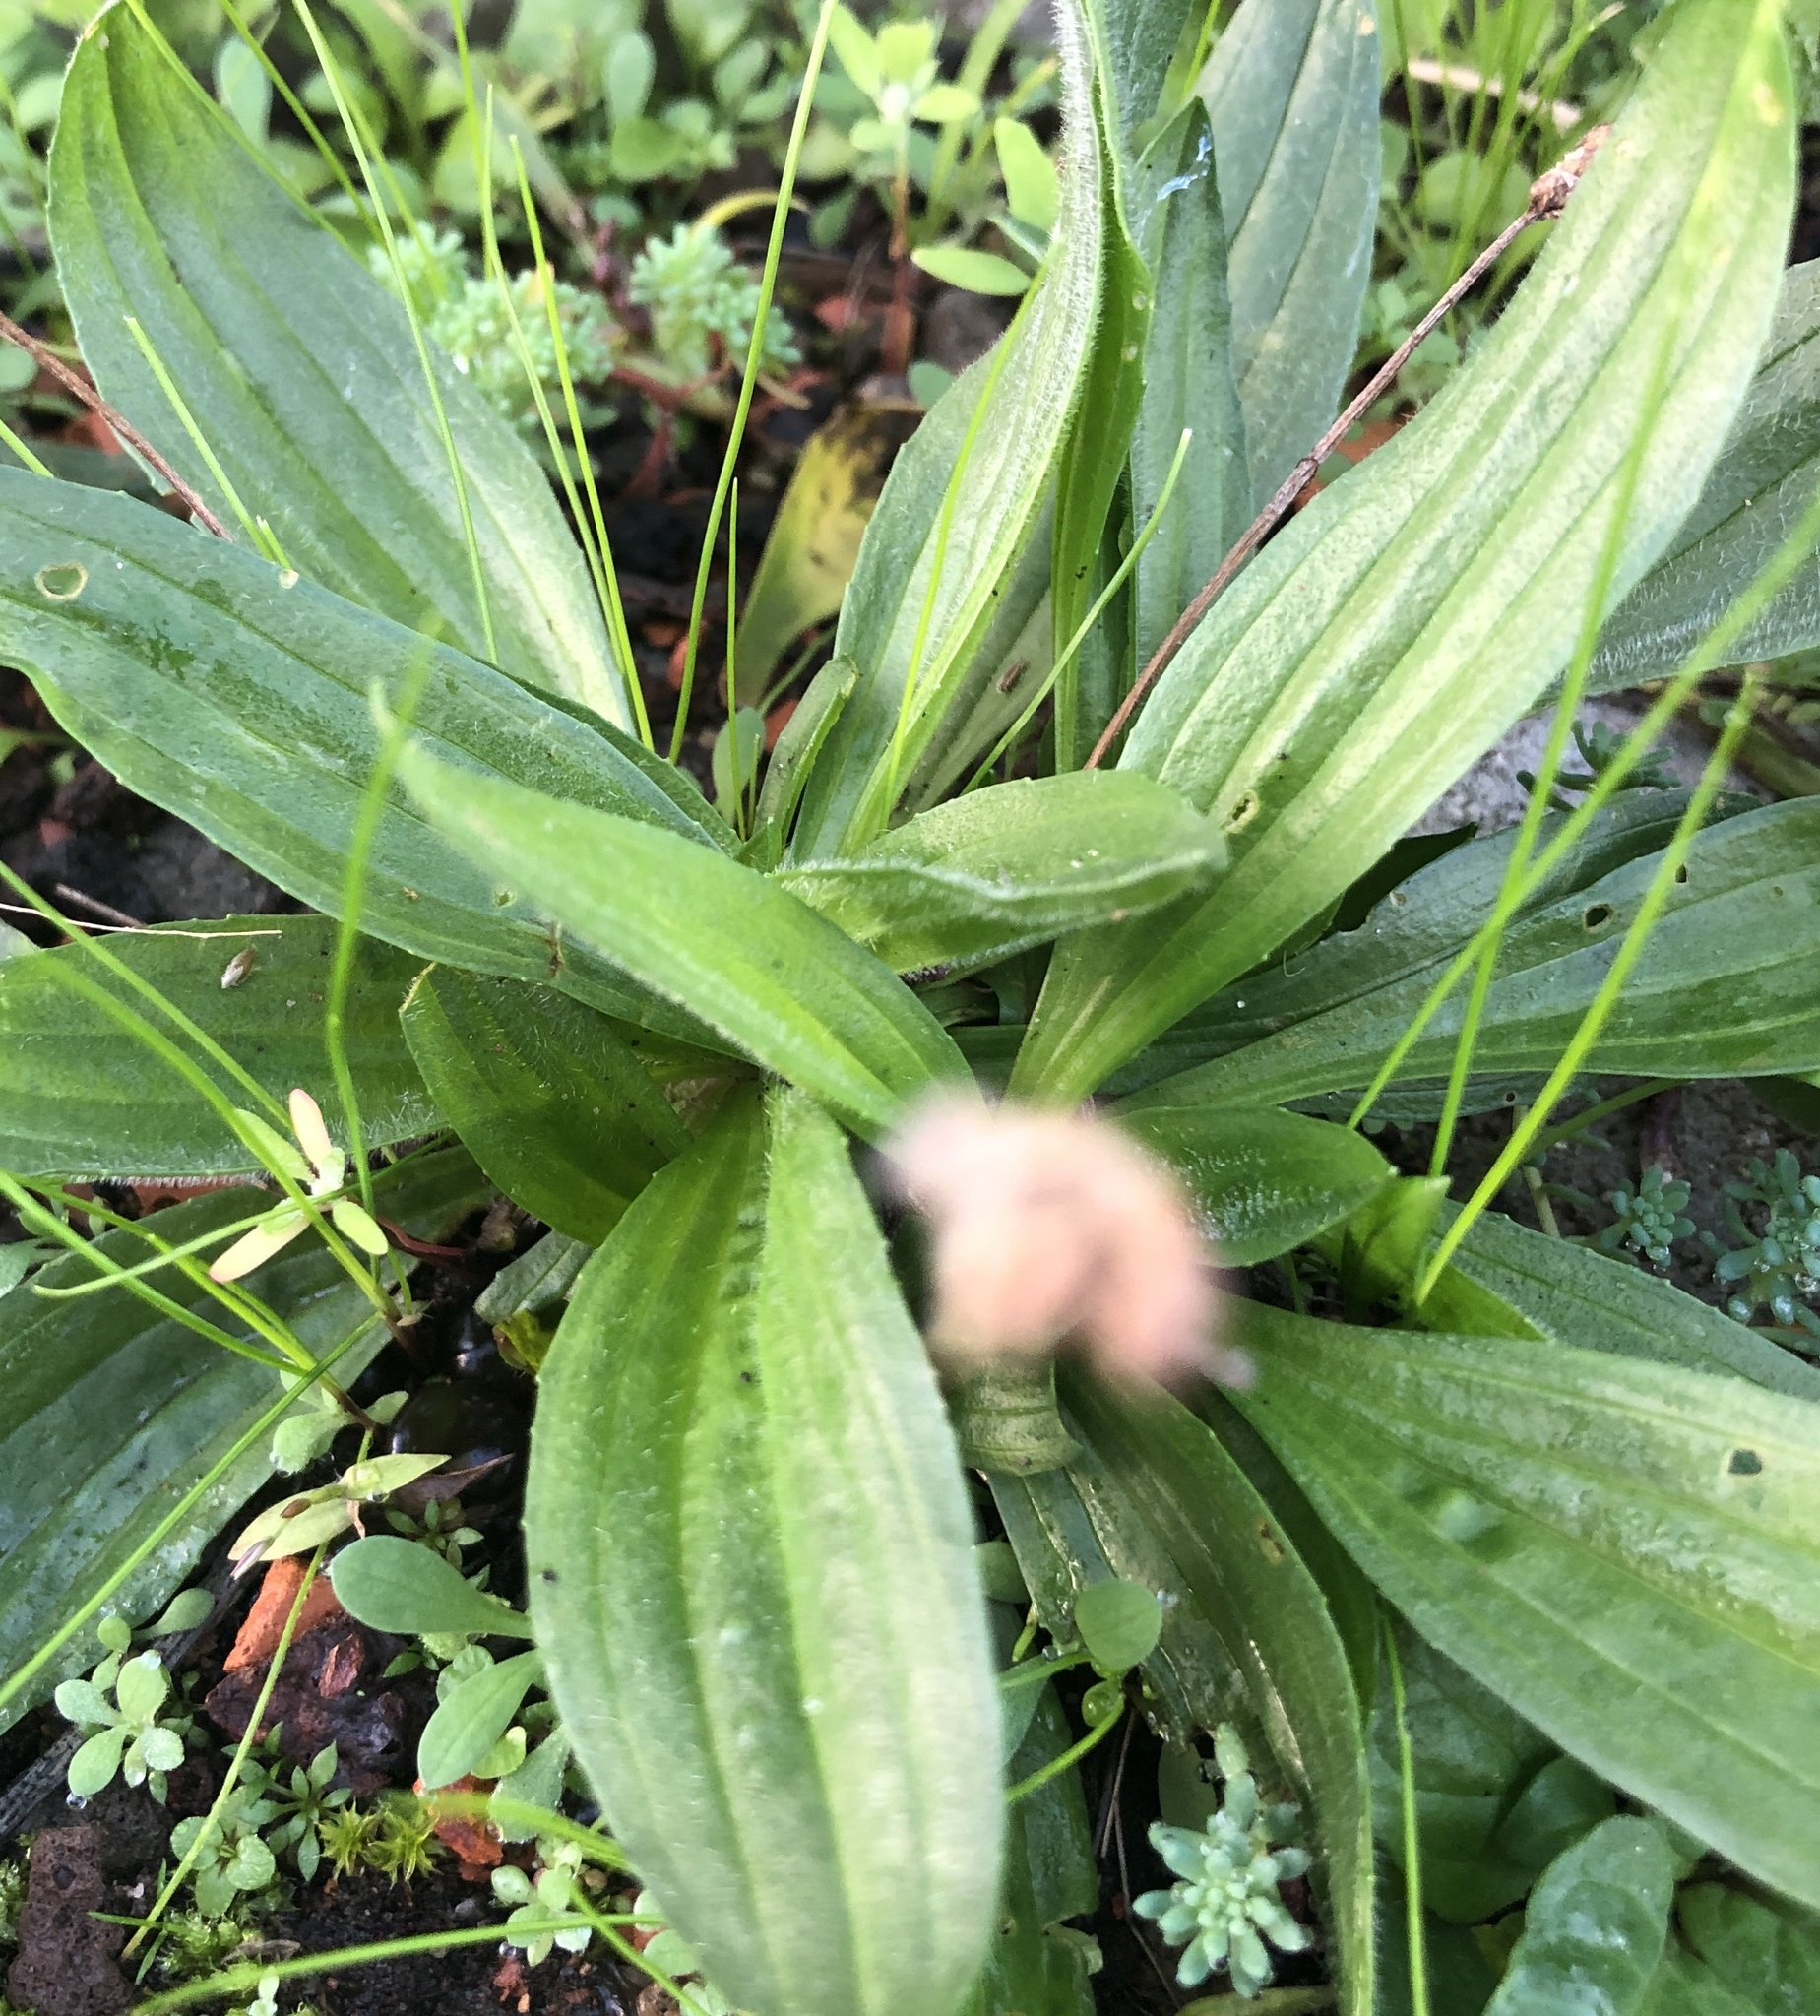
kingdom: Plantae
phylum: Tracheophyta
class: Magnoliopsida
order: Lamiales
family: Plantaginaceae
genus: Plantago
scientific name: Plantago lanceolata
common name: Ribwort plantain
